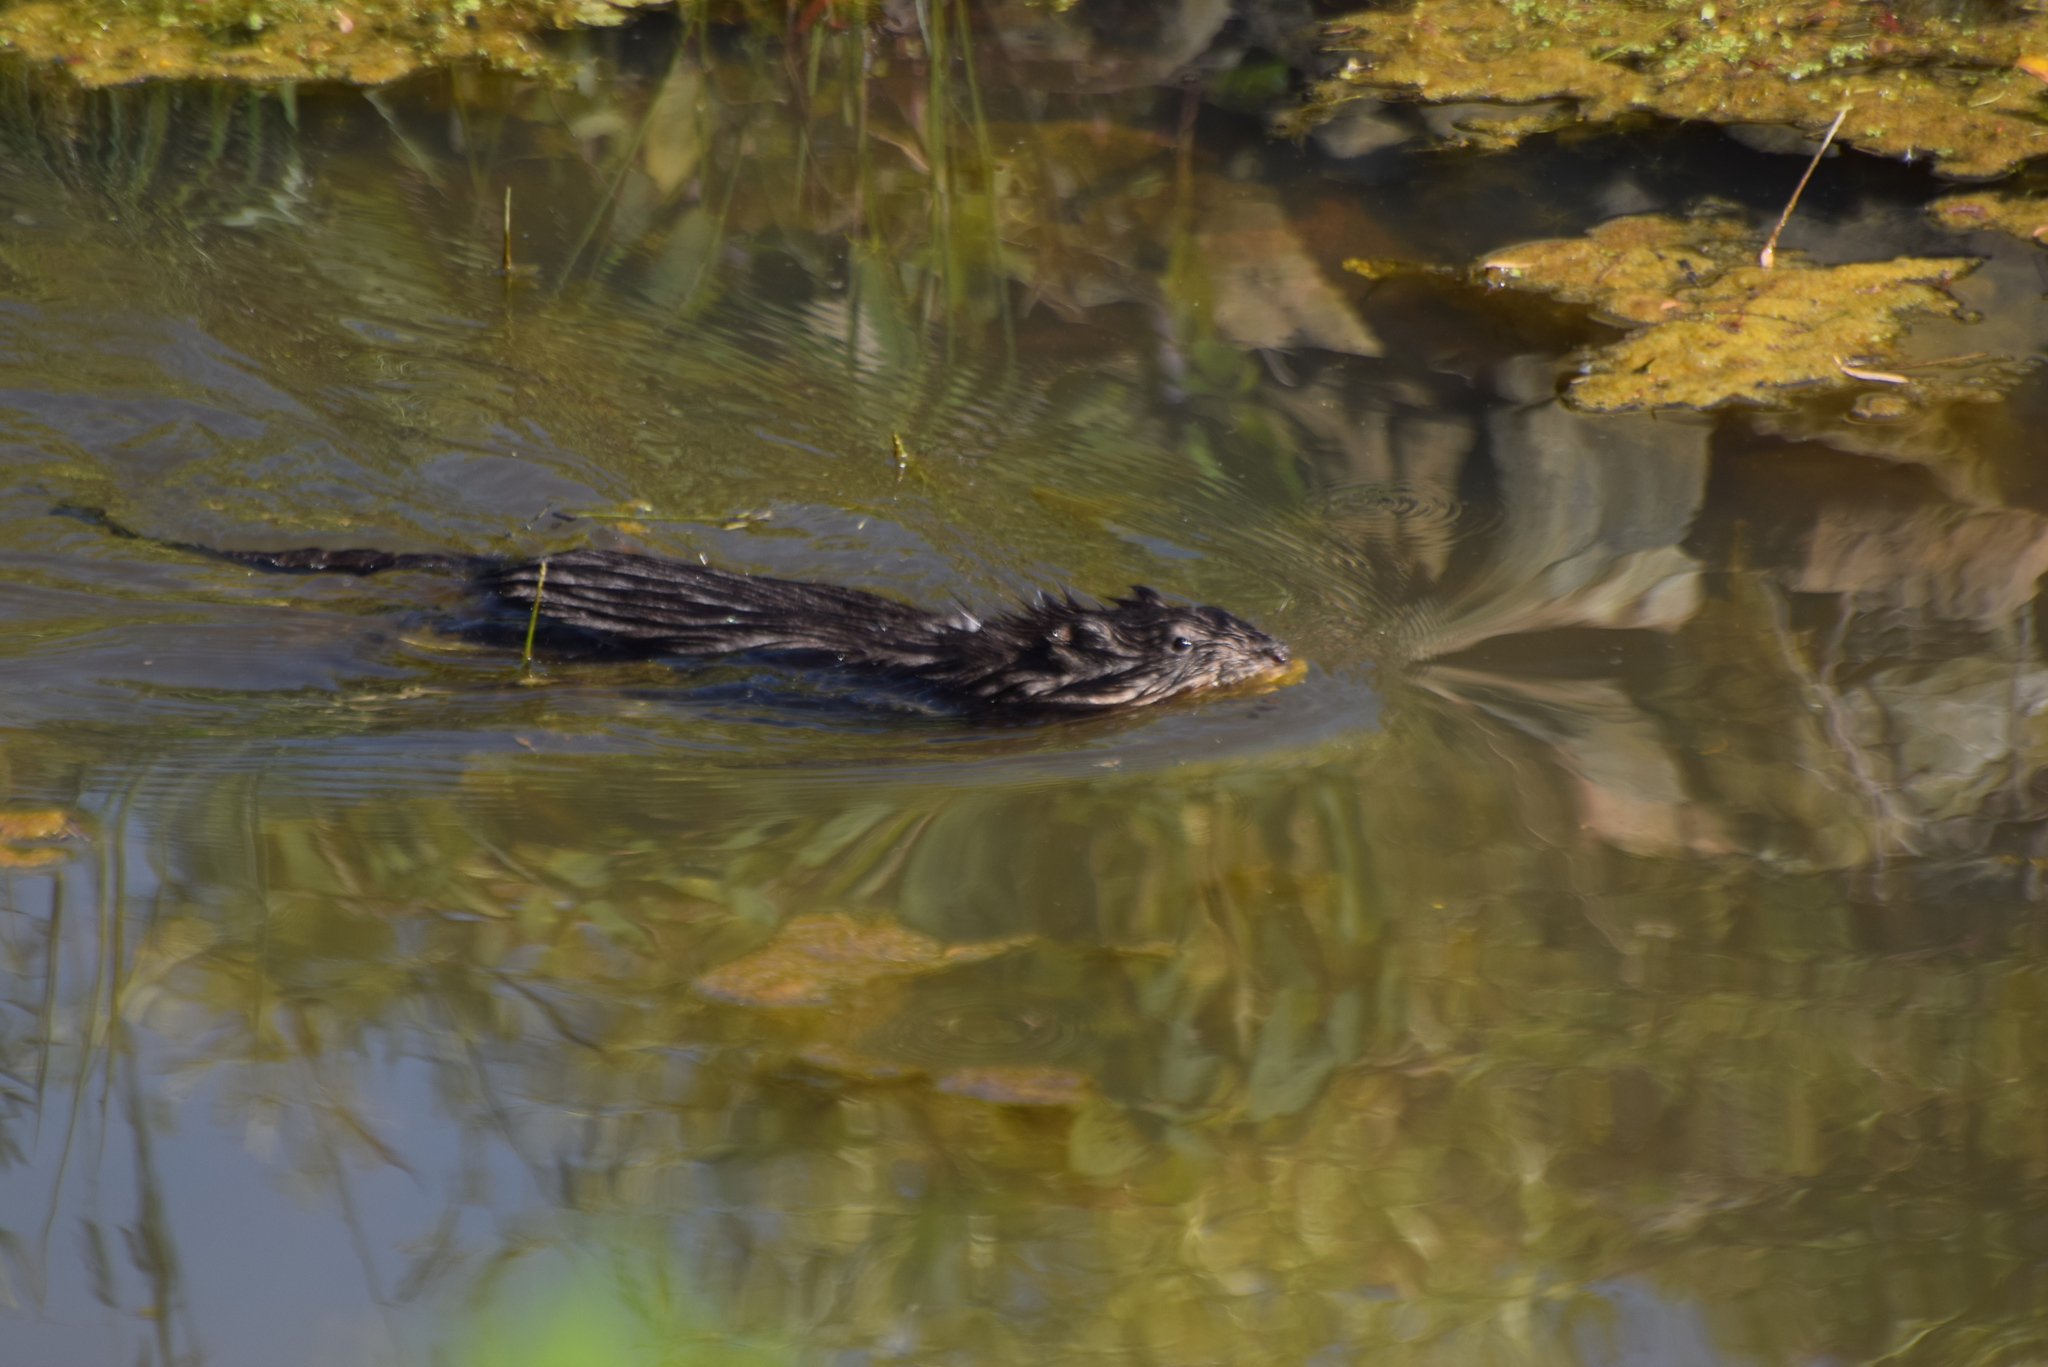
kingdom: Animalia
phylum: Chordata
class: Mammalia
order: Rodentia
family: Cricetidae
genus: Ondatra
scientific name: Ondatra zibethicus
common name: Muskrat
